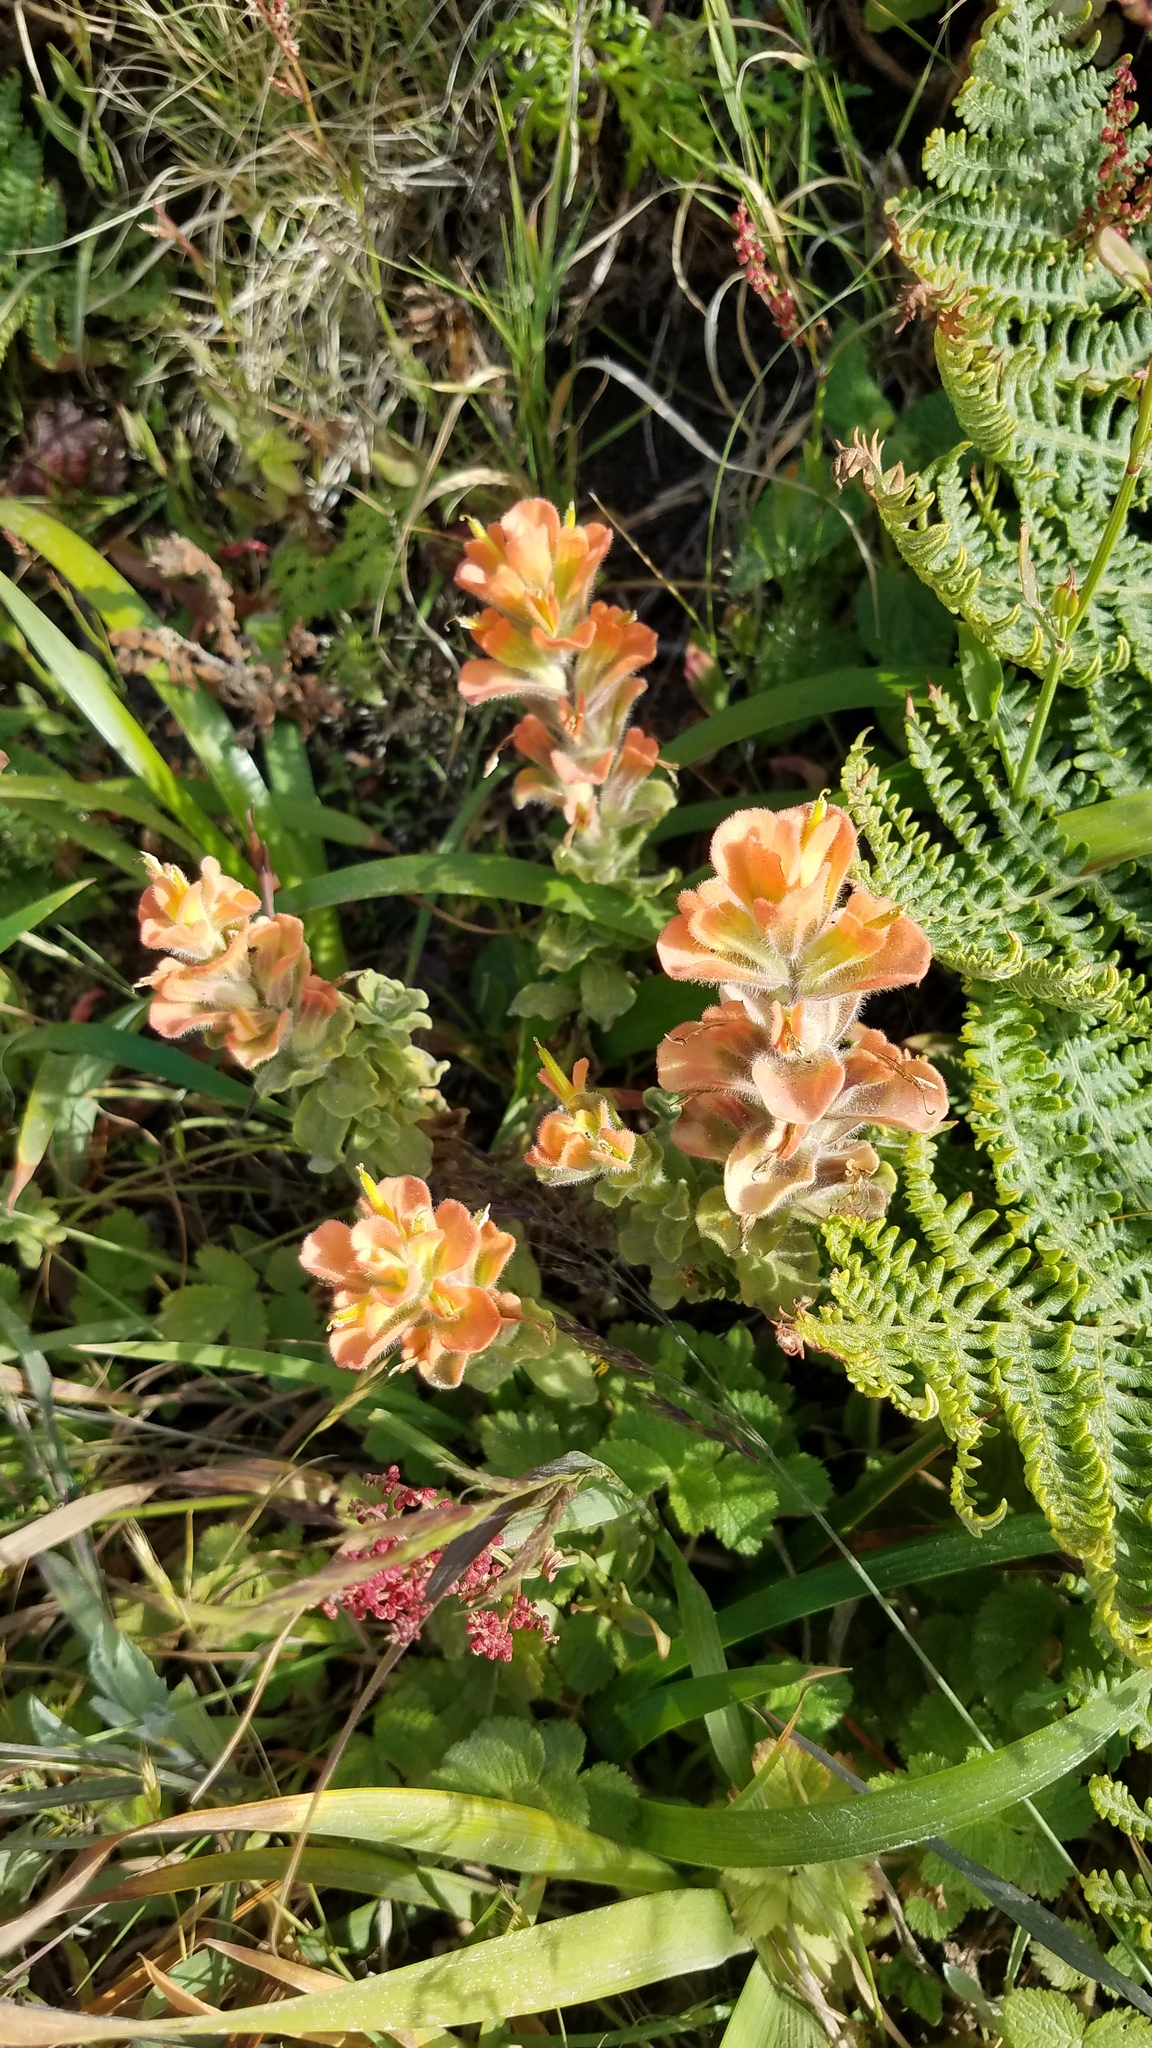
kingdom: Plantae
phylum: Tracheophyta
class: Magnoliopsida
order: Lamiales
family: Orobanchaceae
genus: Castilleja
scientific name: Castilleja latifolia
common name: Monterey indian paintbrush
